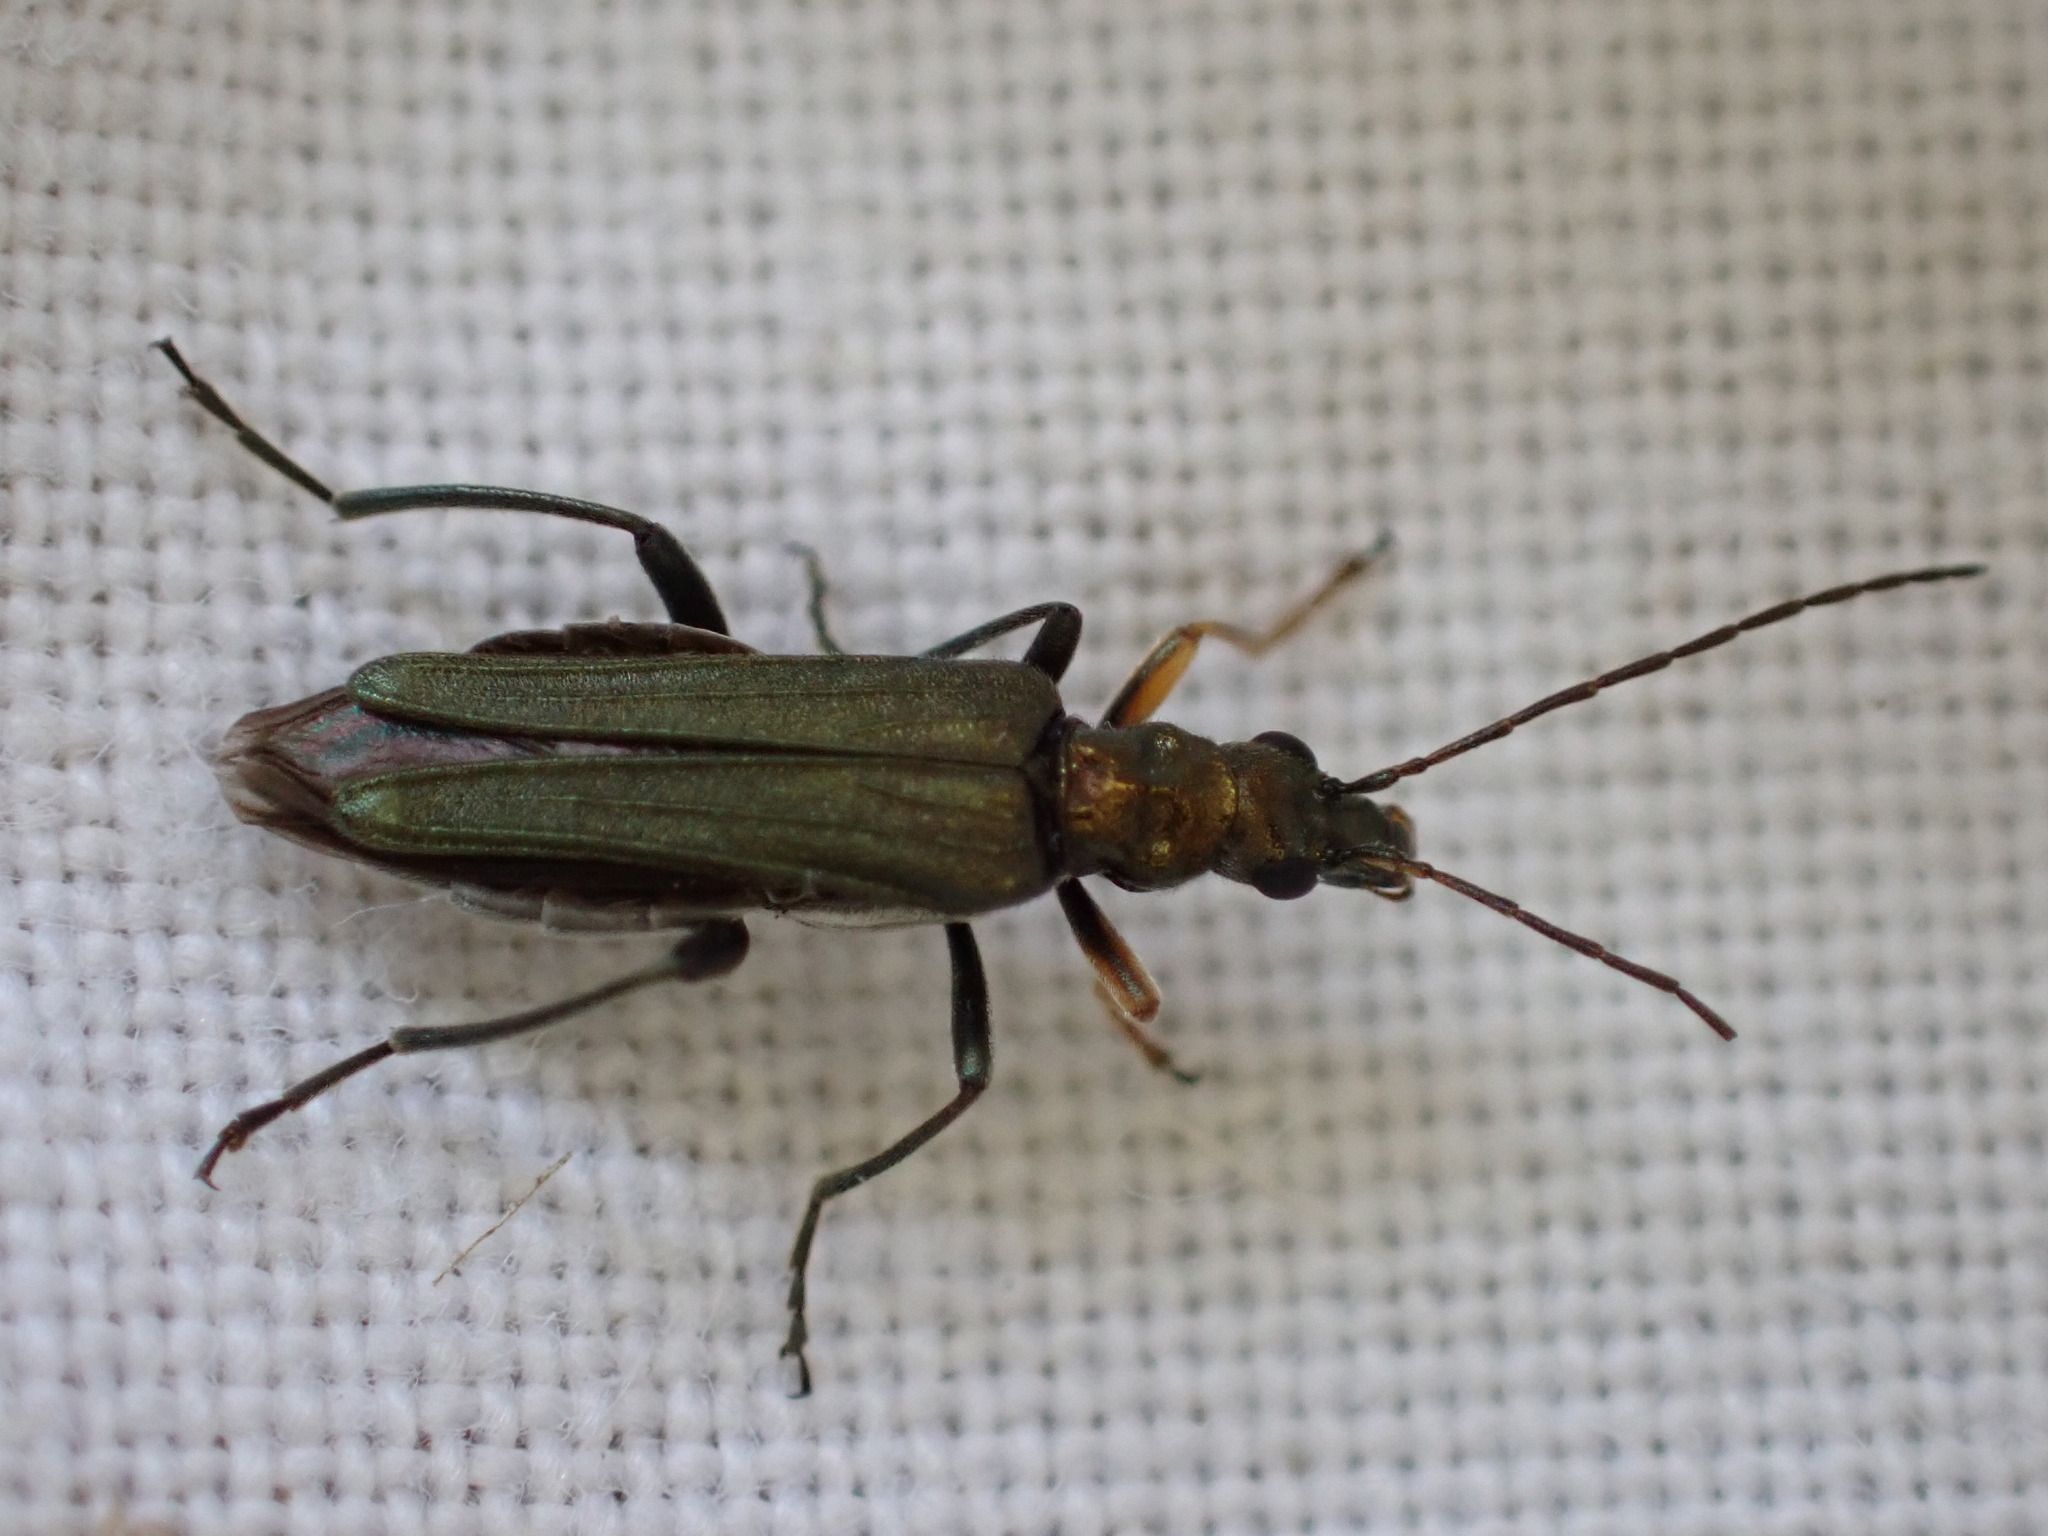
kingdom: Animalia
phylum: Arthropoda
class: Insecta
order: Coleoptera
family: Oedemeridae
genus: Oedemera
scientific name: Oedemera flavipes
